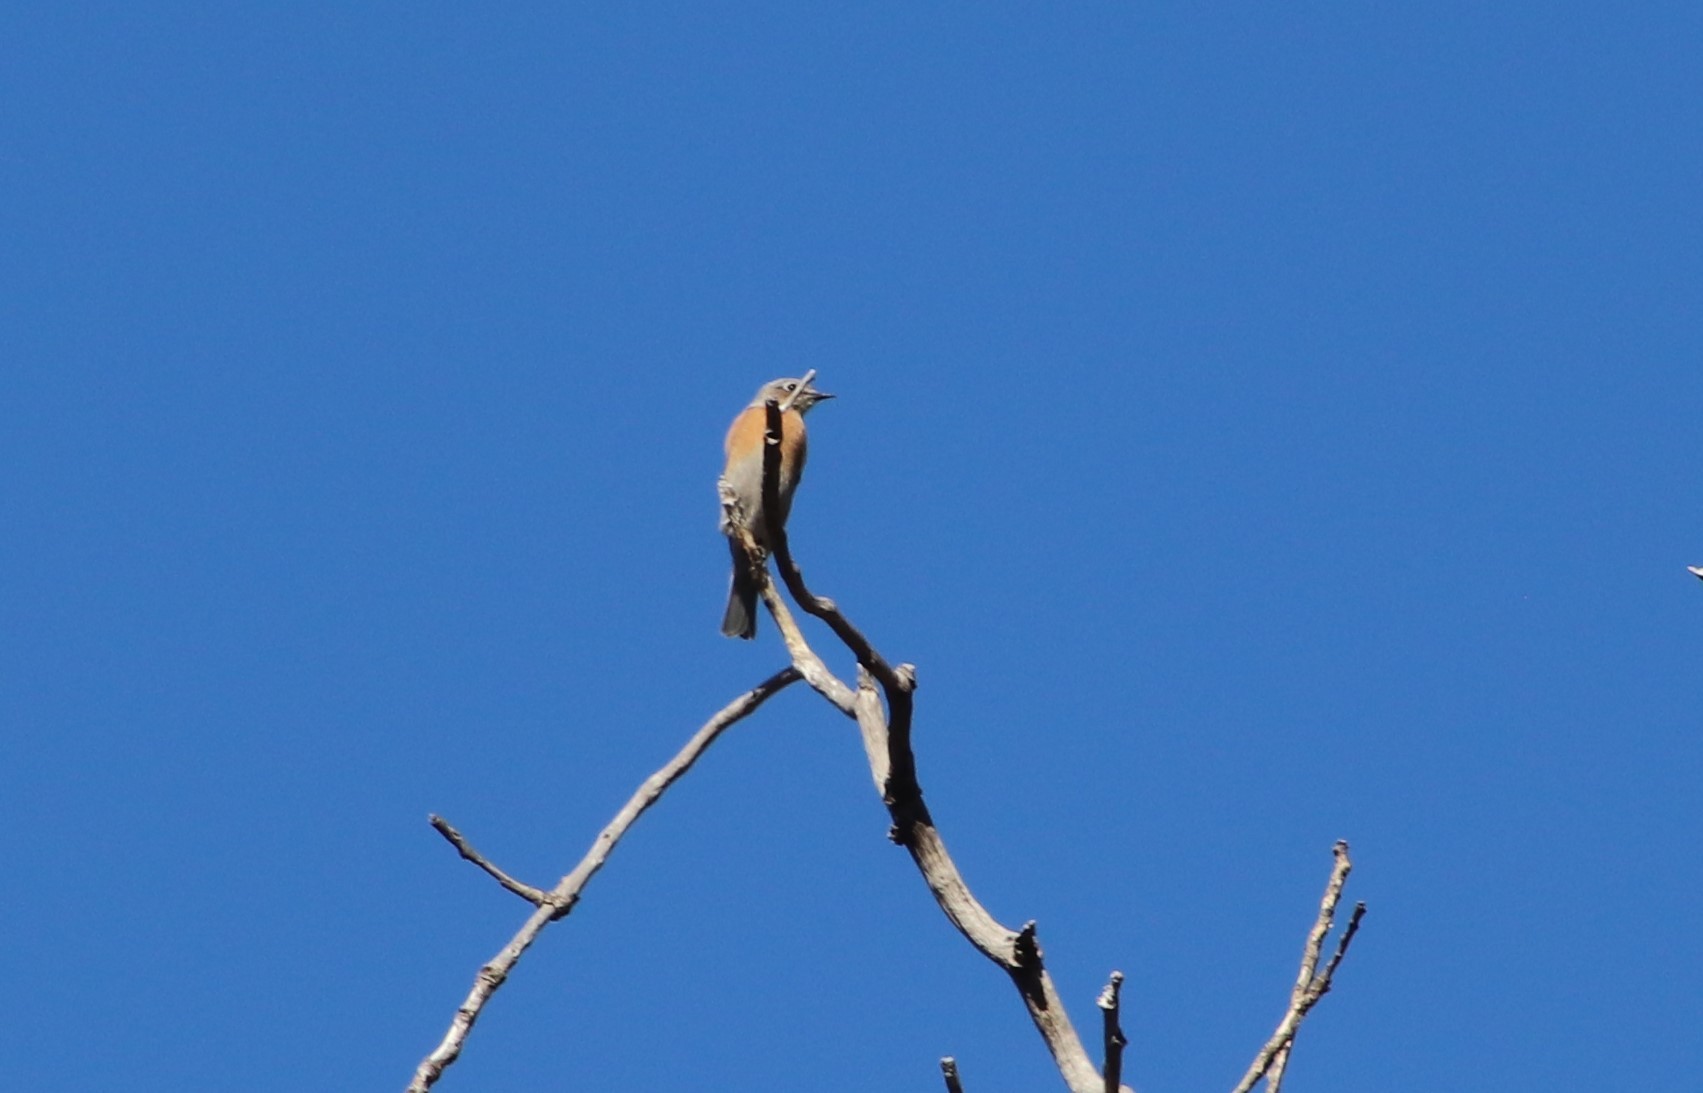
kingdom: Animalia
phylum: Chordata
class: Aves
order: Passeriformes
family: Turdidae
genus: Sialia
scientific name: Sialia mexicana
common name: Western bluebird
